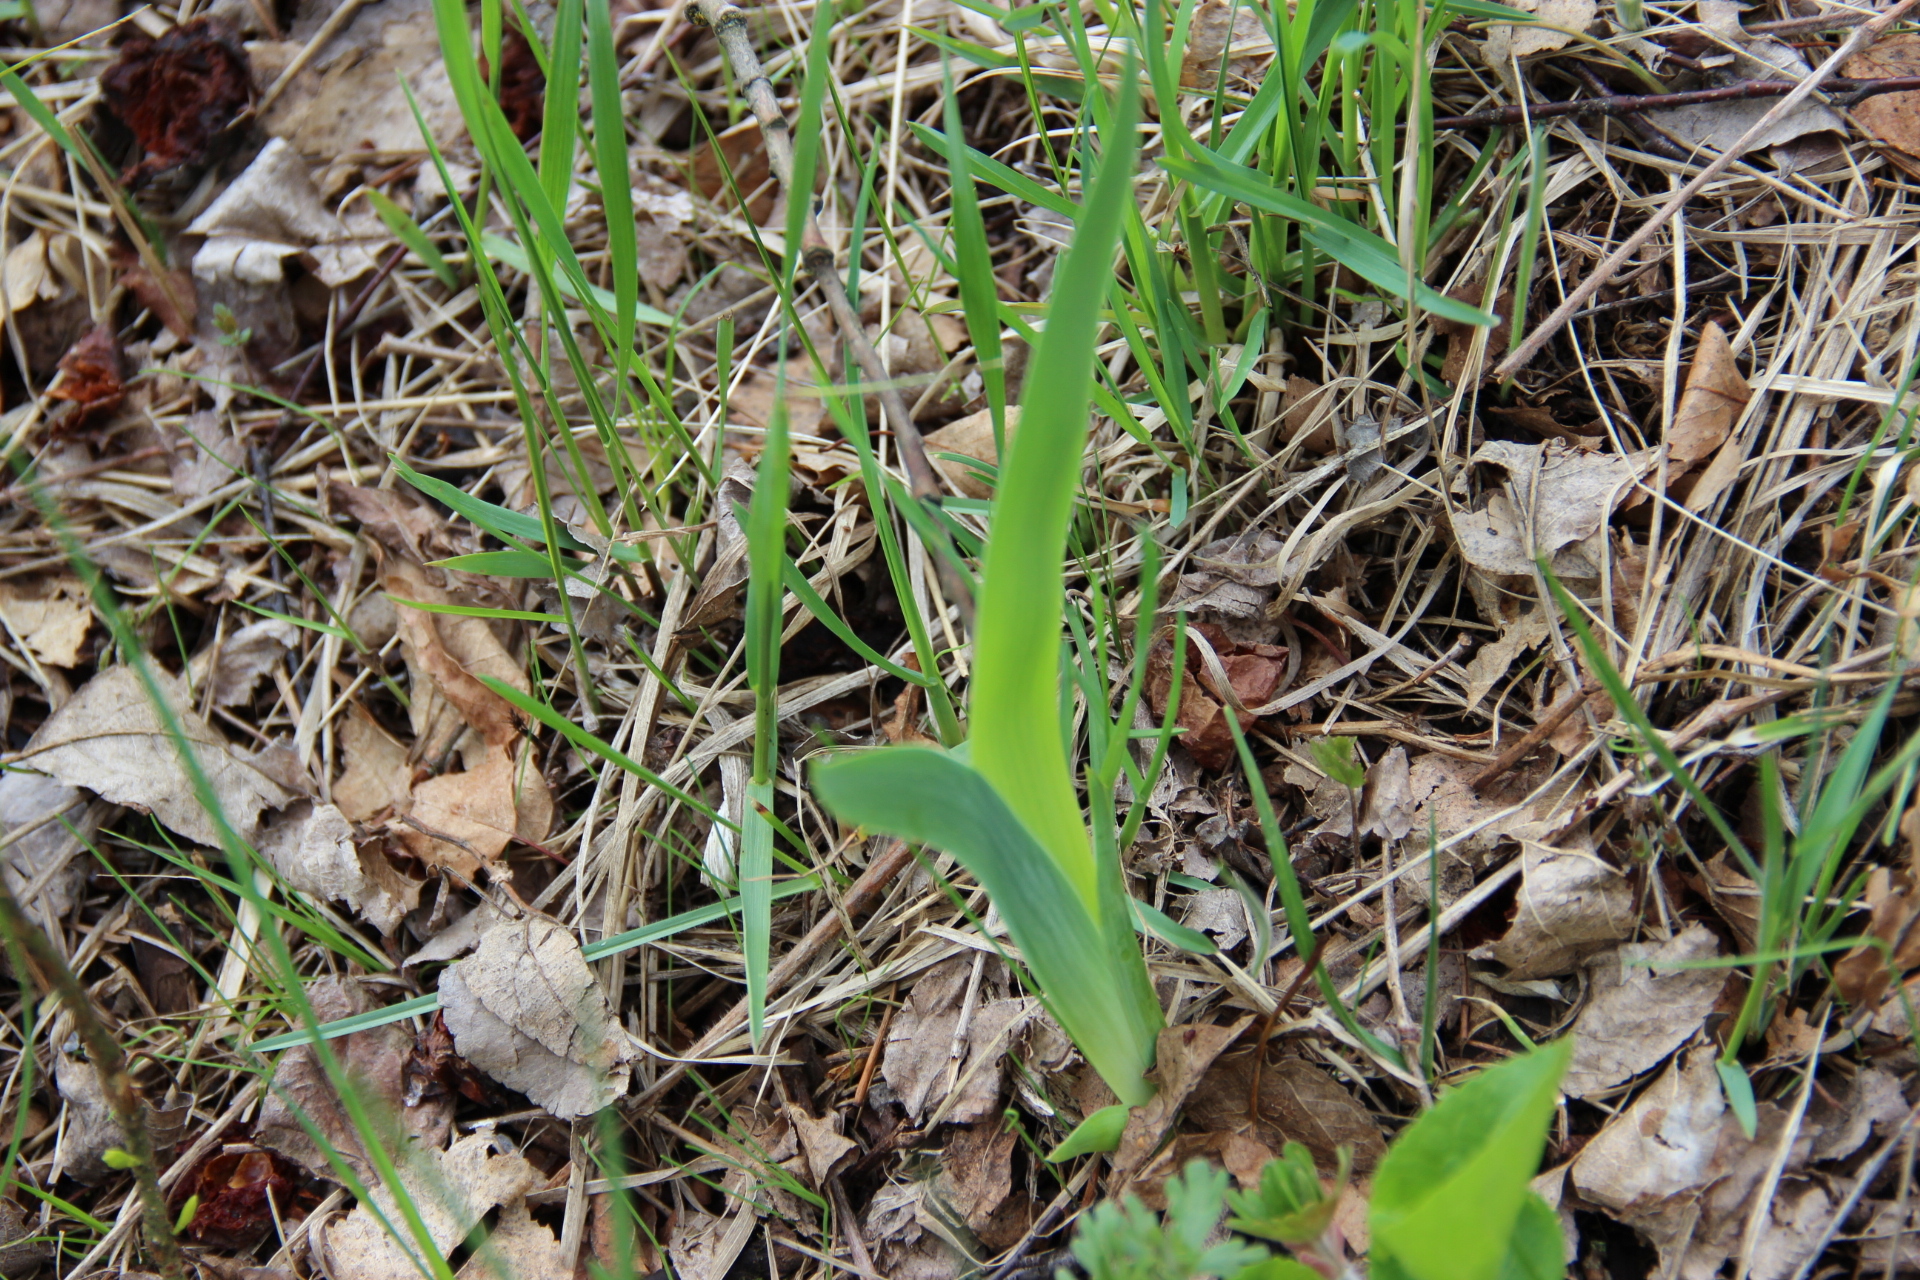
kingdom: Plantae
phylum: Tracheophyta
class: Liliopsida
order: Asparagales
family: Iridaceae
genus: Iris
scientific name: Iris aphylla
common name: Stool iris
